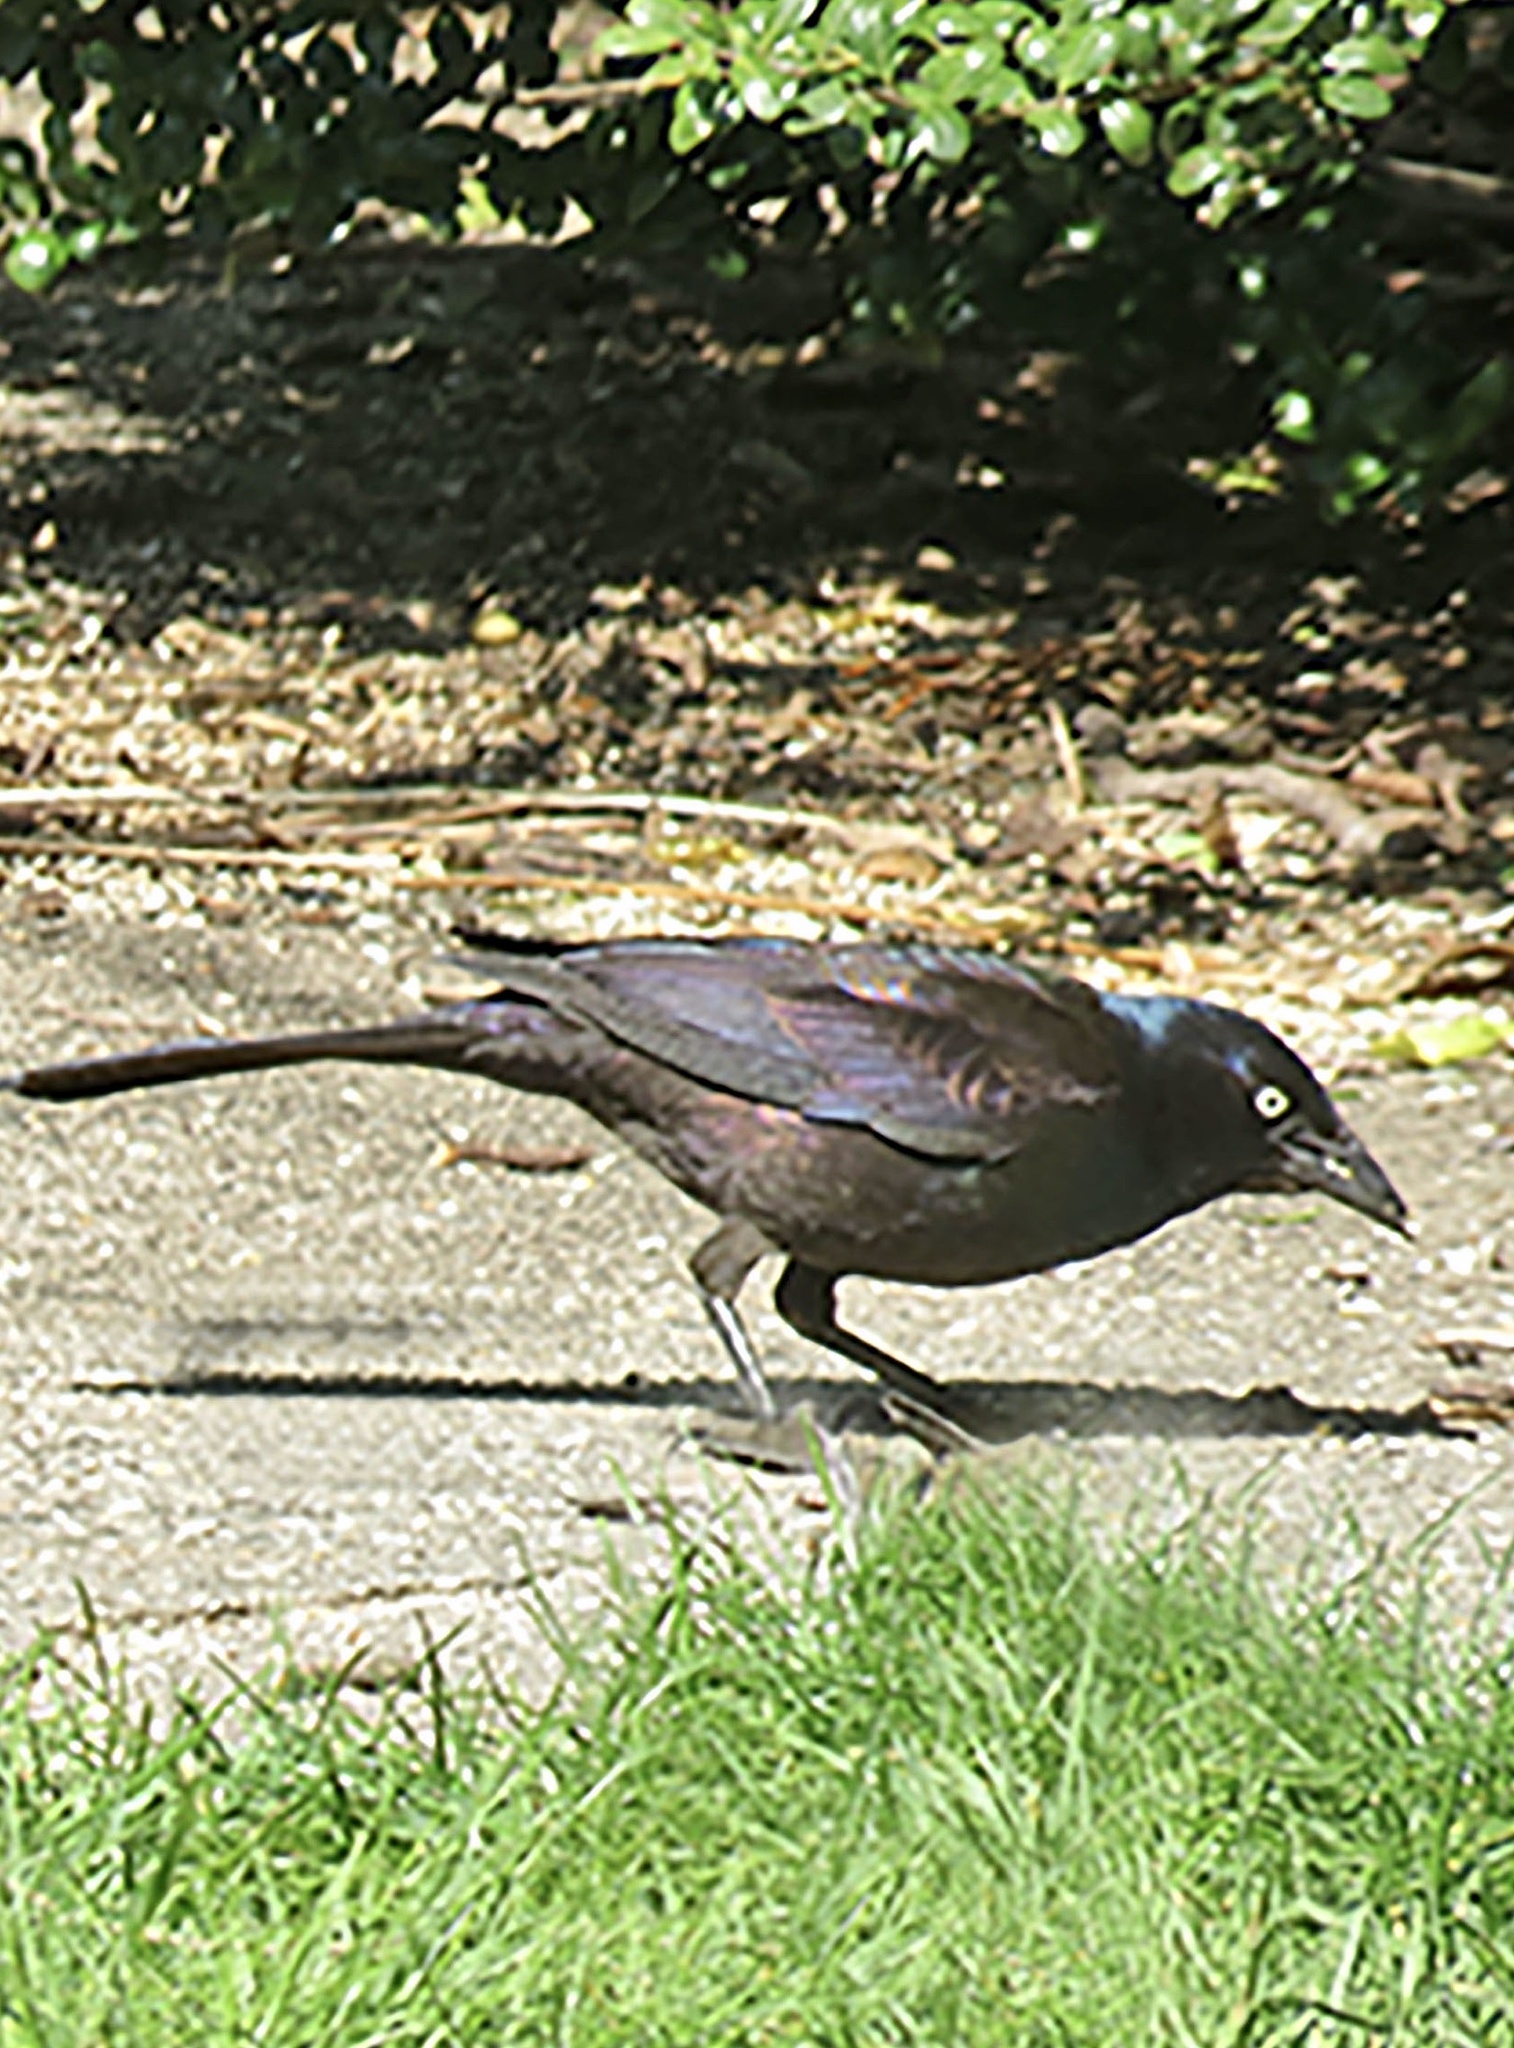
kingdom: Animalia
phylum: Chordata
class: Aves
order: Passeriformes
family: Icteridae
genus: Quiscalus
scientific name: Quiscalus quiscula
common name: Common grackle
